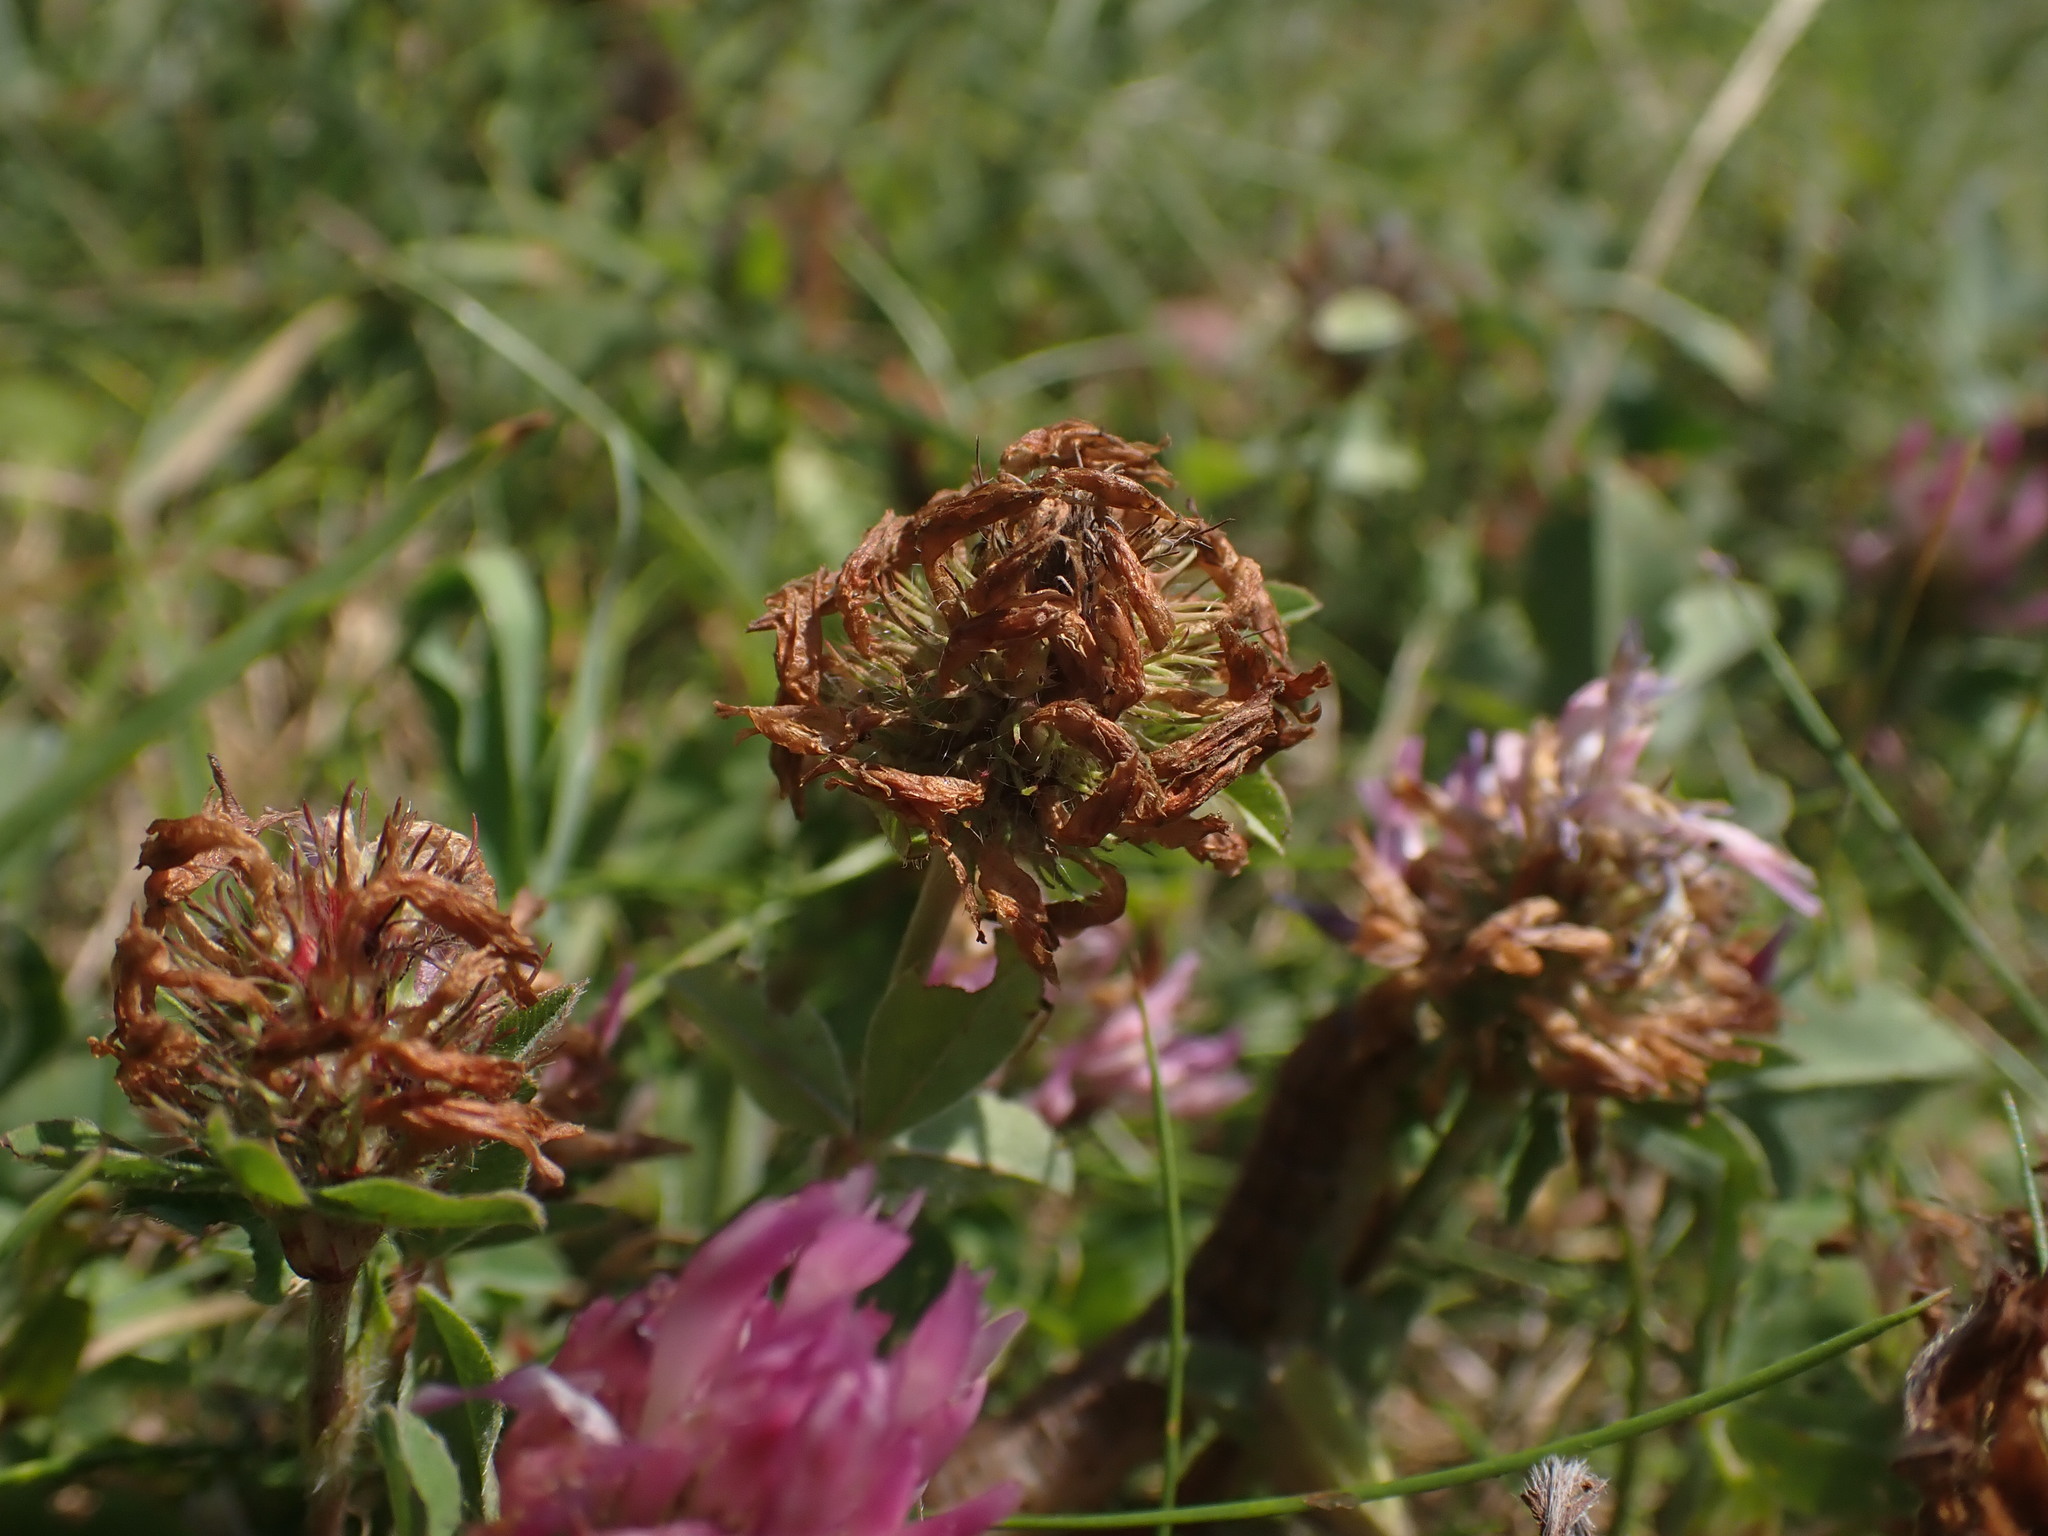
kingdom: Plantae
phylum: Tracheophyta
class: Magnoliopsida
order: Fabales
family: Fabaceae
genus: Trifolium
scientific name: Trifolium pratense
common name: Red clover
